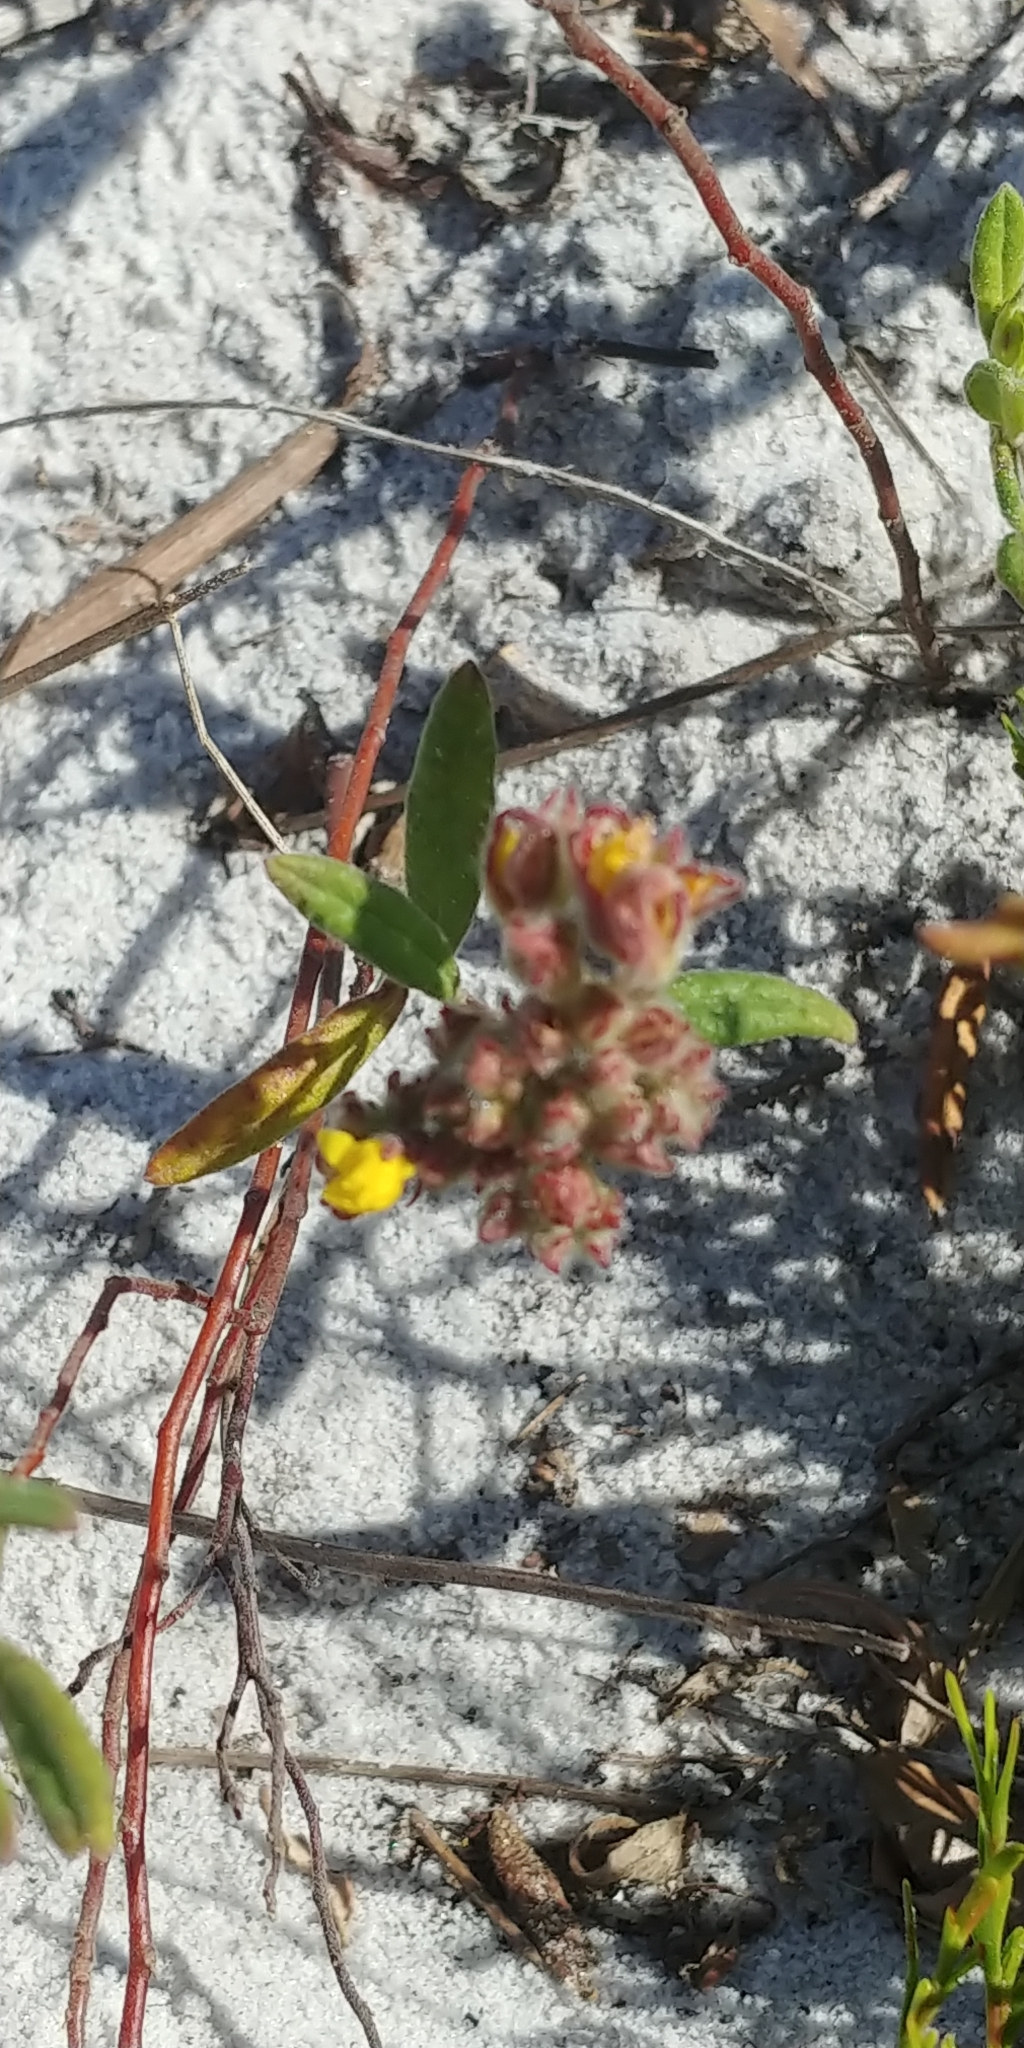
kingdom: Plantae
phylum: Tracheophyta
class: Magnoliopsida
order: Malvales
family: Cistaceae
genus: Crocanthemum
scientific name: Crocanthemum corymbosum
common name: Pinebarren sun-rose
